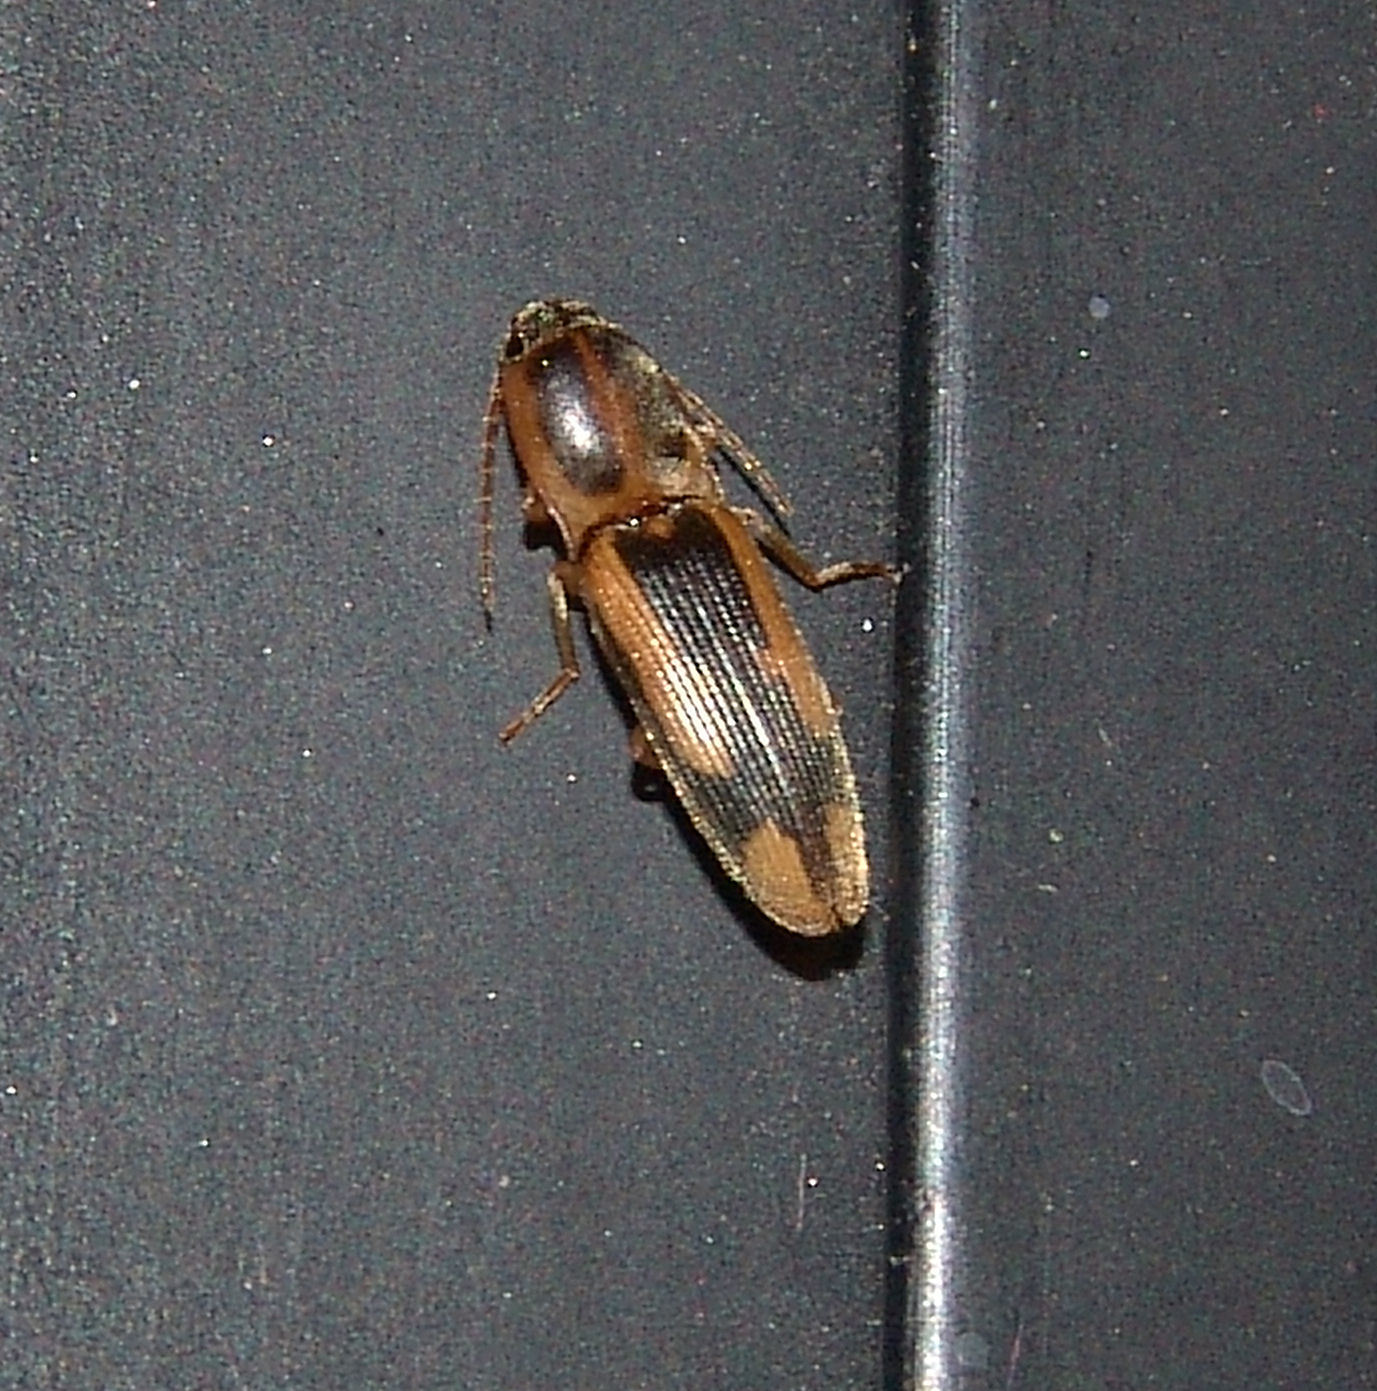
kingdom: Animalia
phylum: Arthropoda
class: Insecta
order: Coleoptera
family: Elateridae
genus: Monocrepidius
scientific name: Monocrepidius
